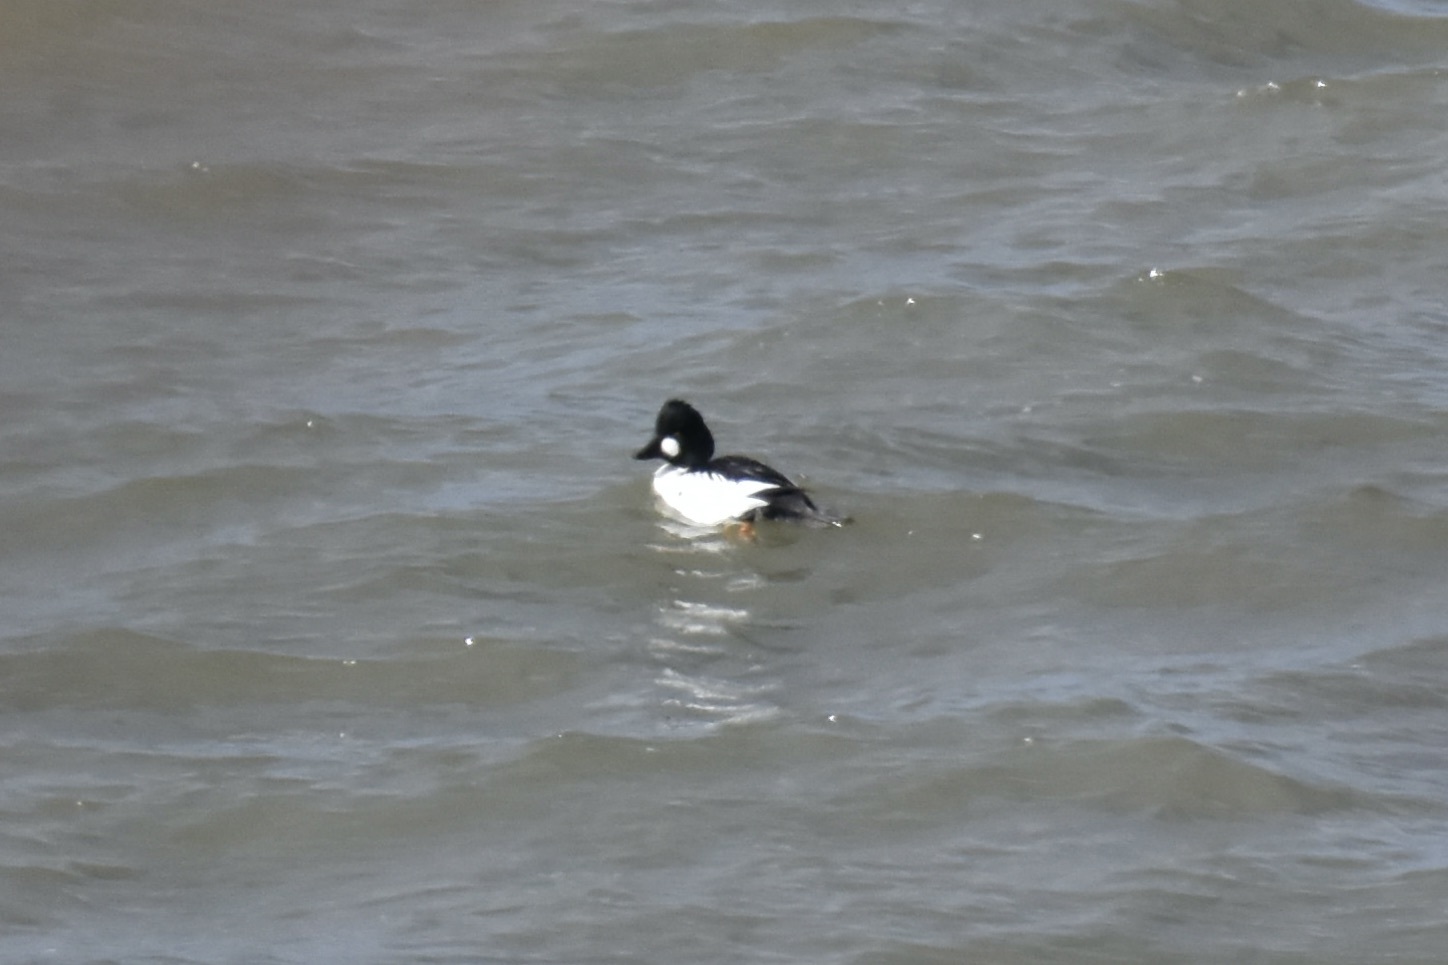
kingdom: Animalia
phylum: Chordata
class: Aves
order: Anseriformes
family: Anatidae
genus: Bucephala
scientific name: Bucephala clangula
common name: Common goldeneye
